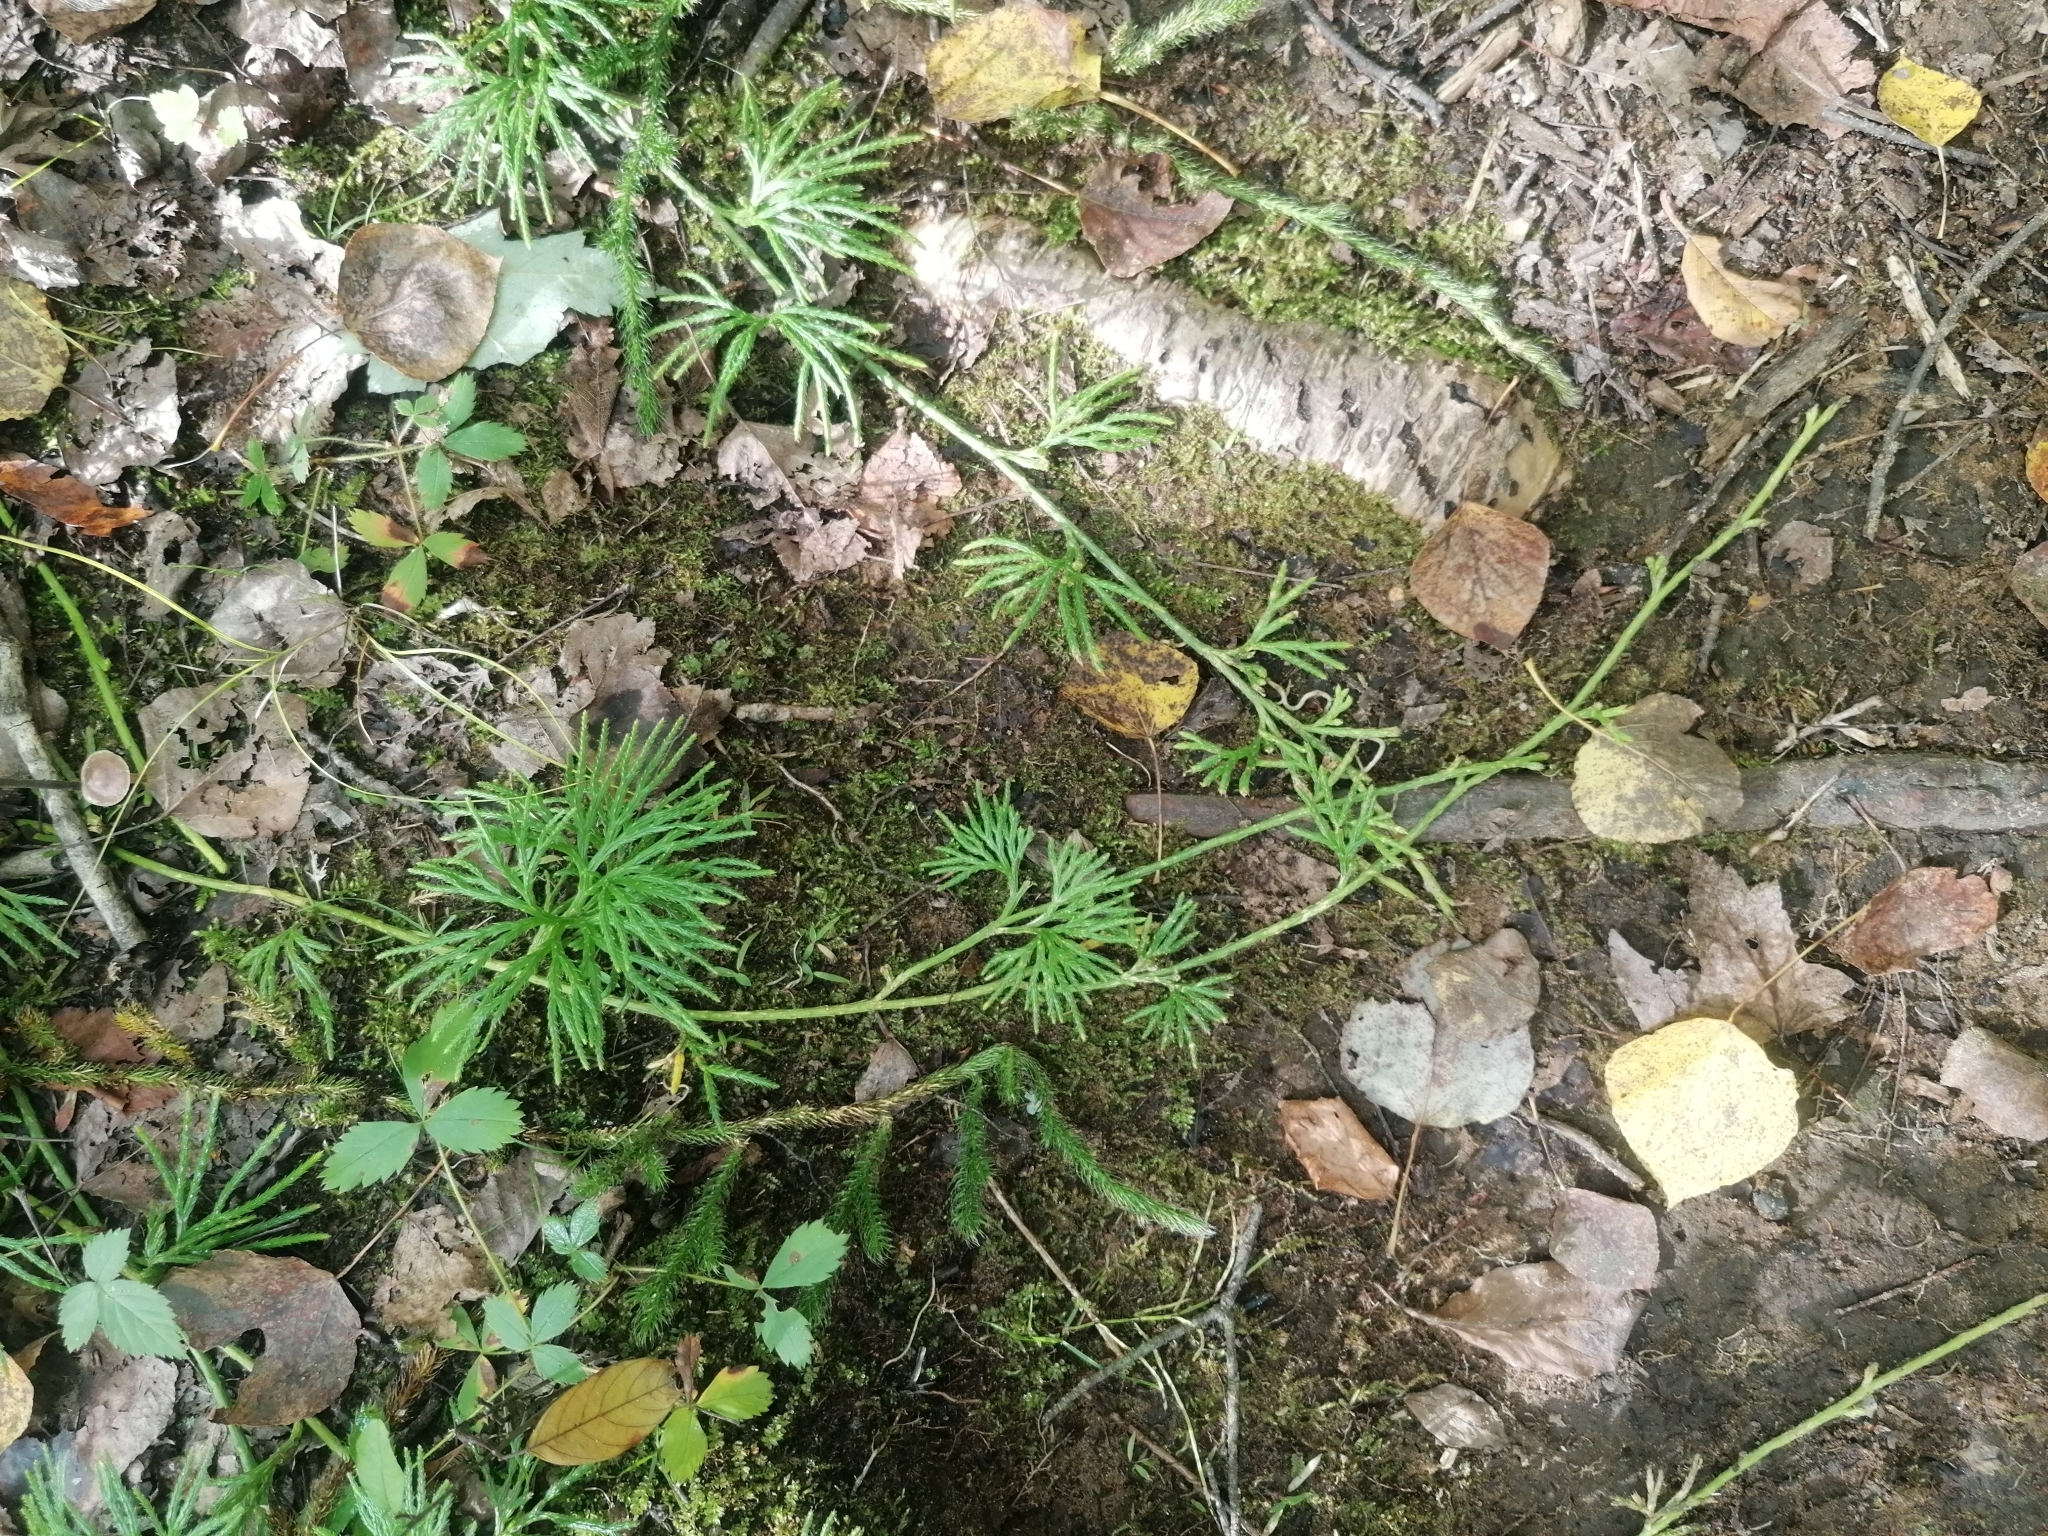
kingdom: Plantae
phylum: Tracheophyta
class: Lycopodiopsida
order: Lycopodiales
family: Lycopodiaceae
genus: Diphasiastrum
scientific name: Diphasiastrum digitatum
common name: Southern running-pine
